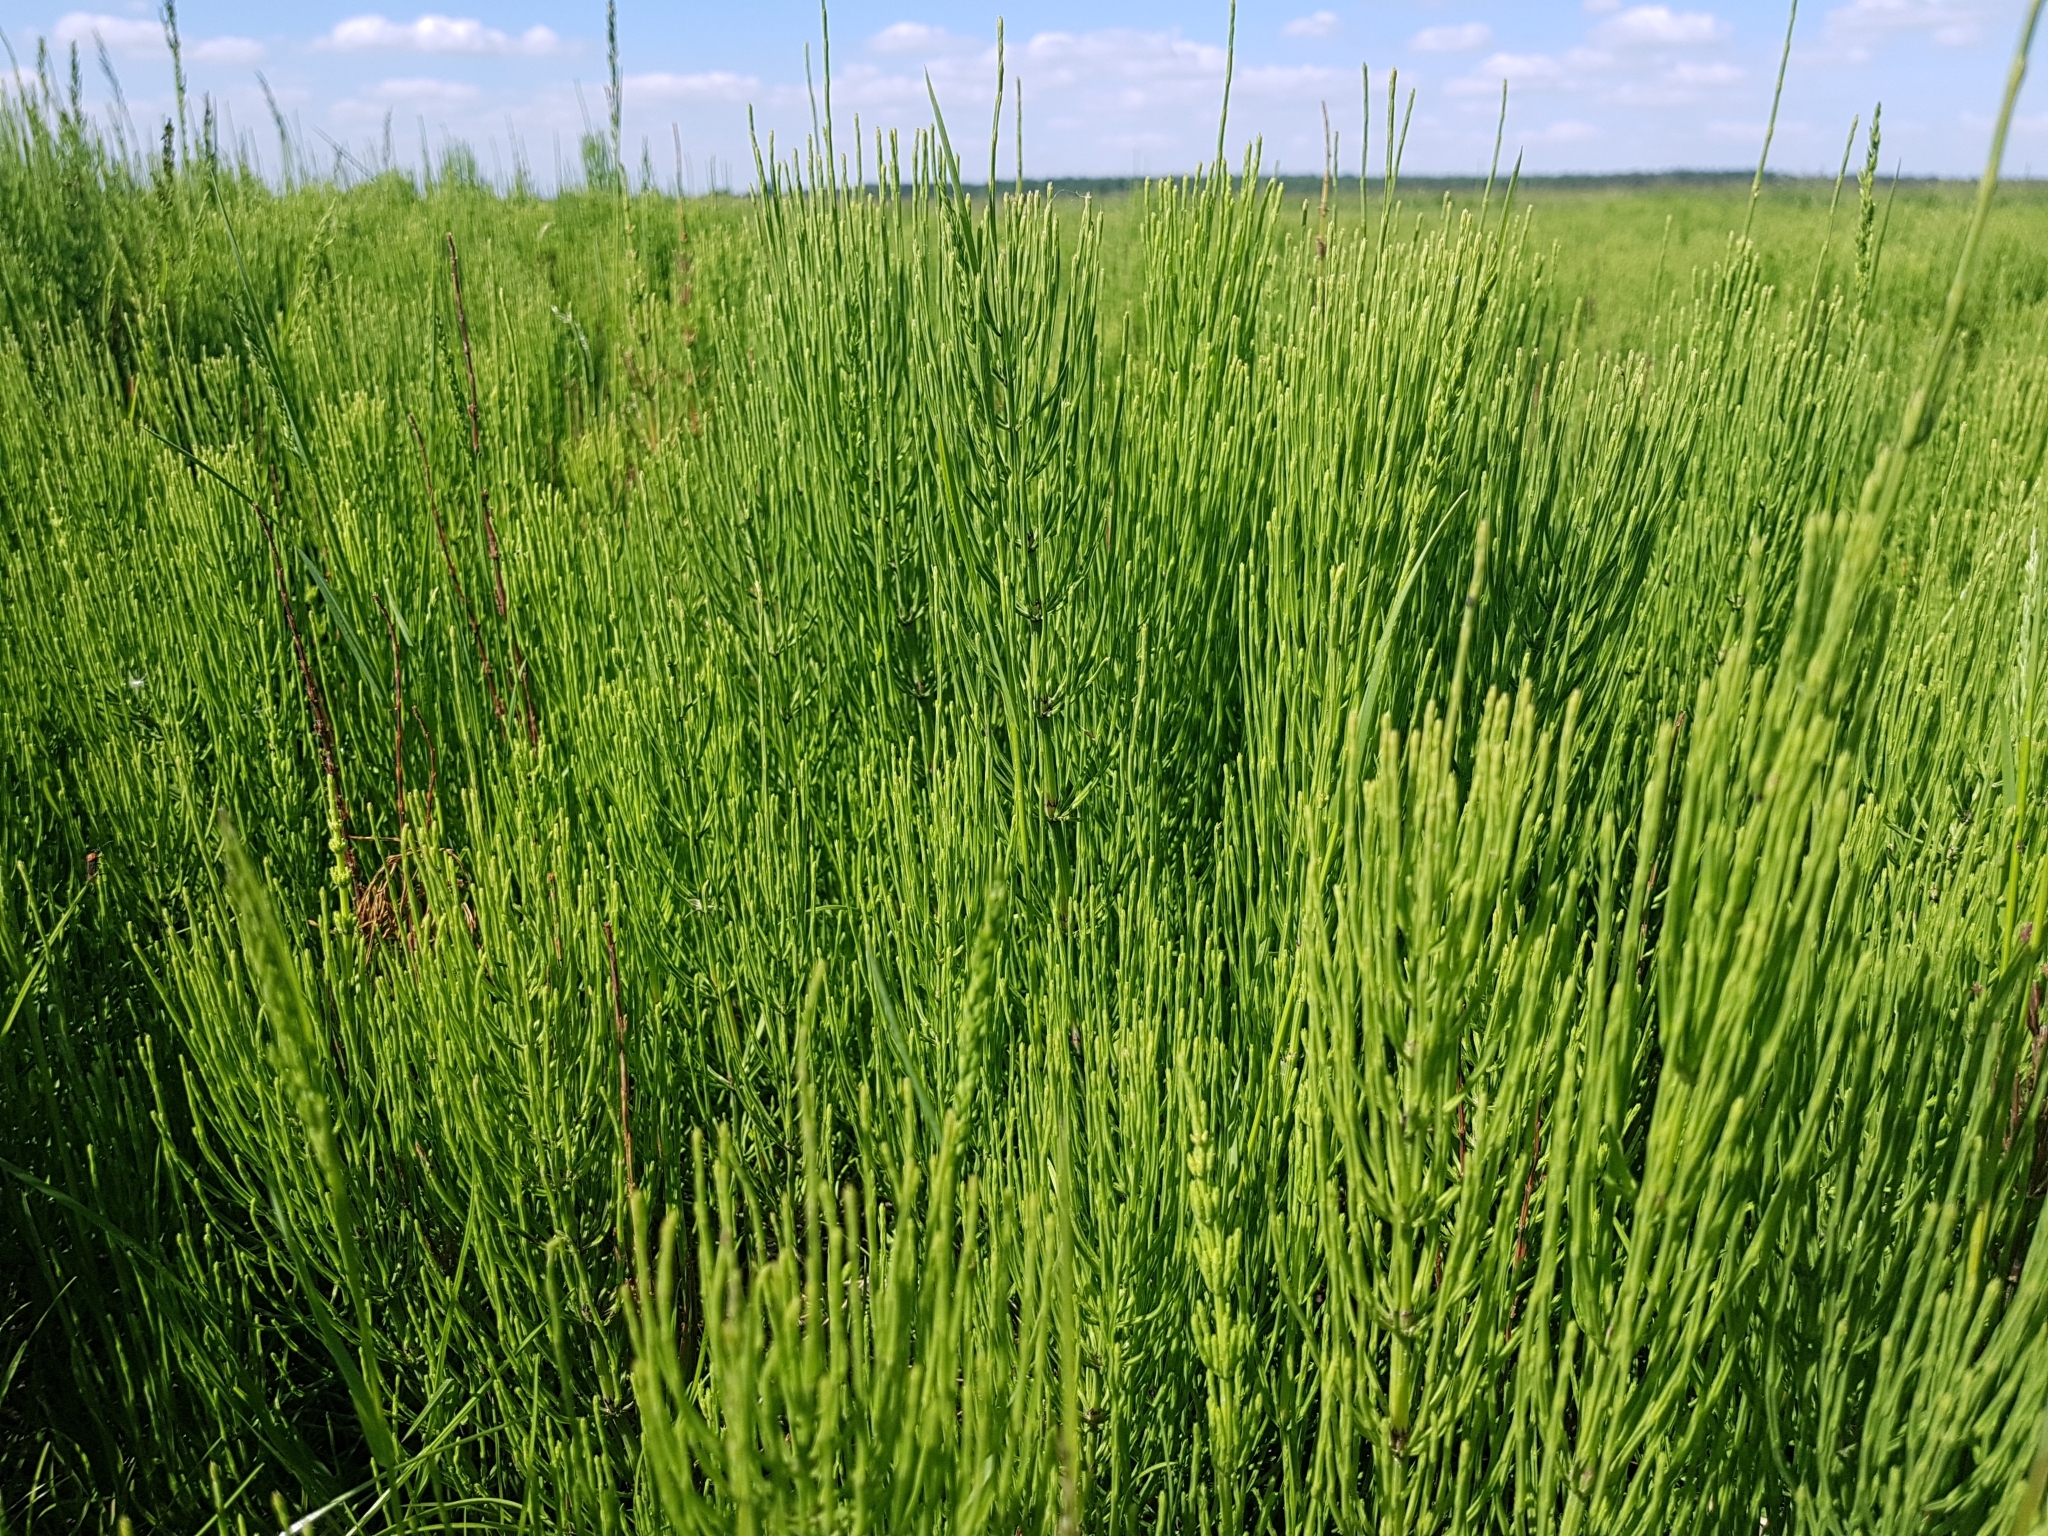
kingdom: Plantae
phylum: Tracheophyta
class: Polypodiopsida
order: Equisetales
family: Equisetaceae
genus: Equisetum
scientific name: Equisetum arvense
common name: Field horsetail
